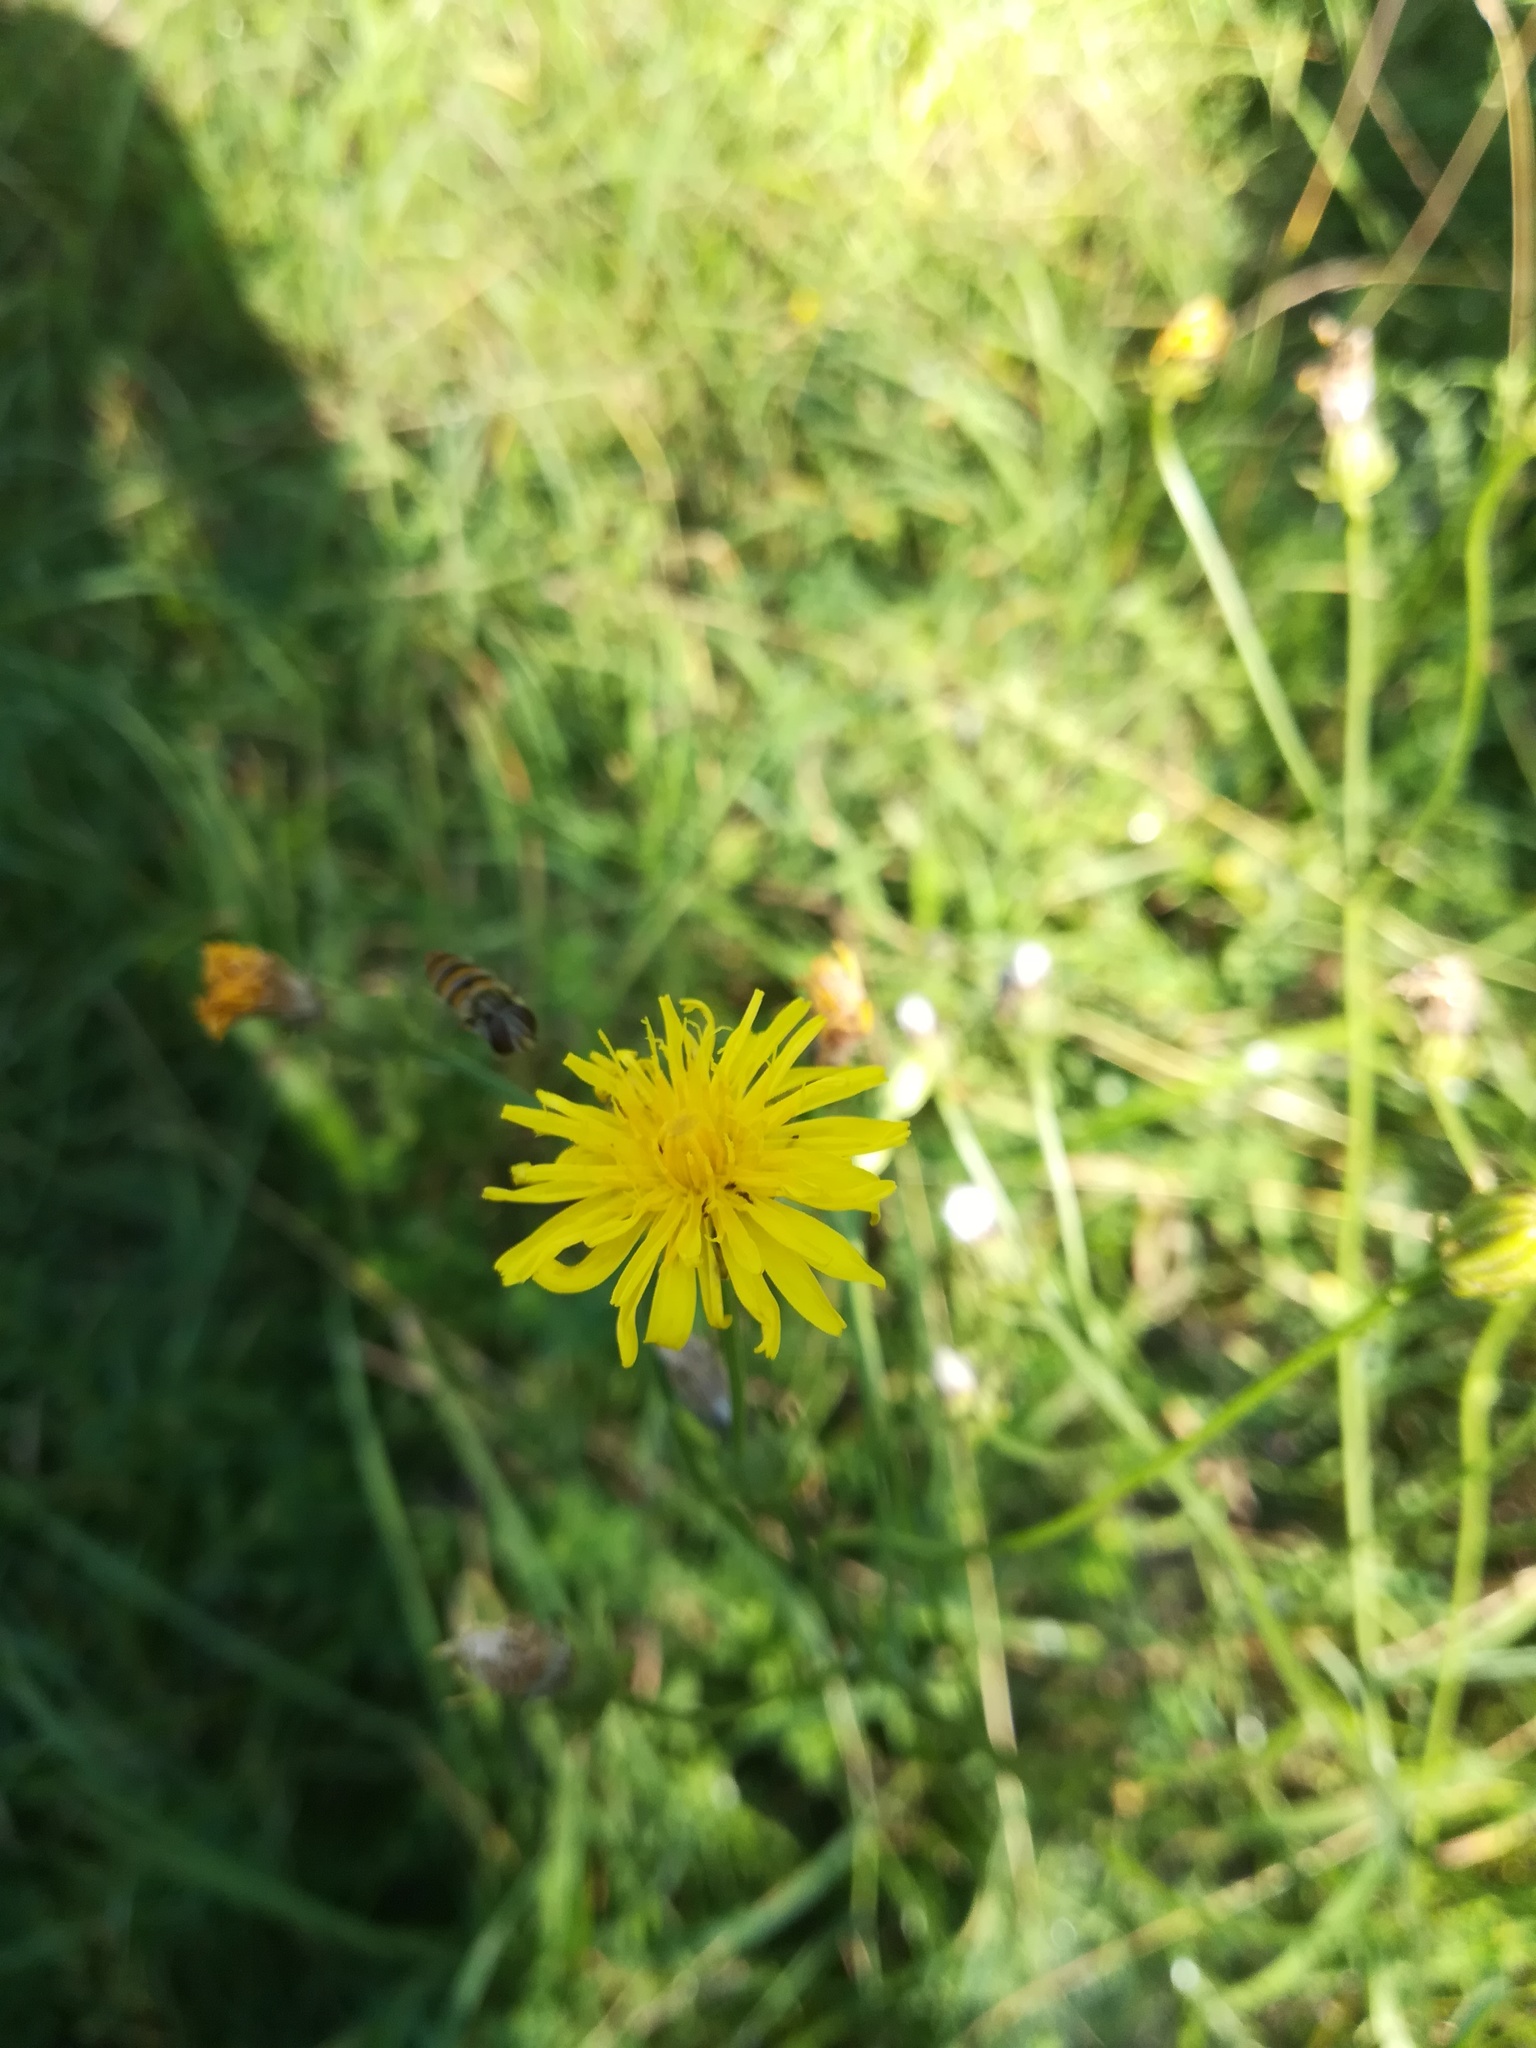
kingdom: Plantae
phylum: Tracheophyta
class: Magnoliopsida
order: Asterales
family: Asteraceae
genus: Crepis
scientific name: Crepis biennis
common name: Rough hawk's-beard
